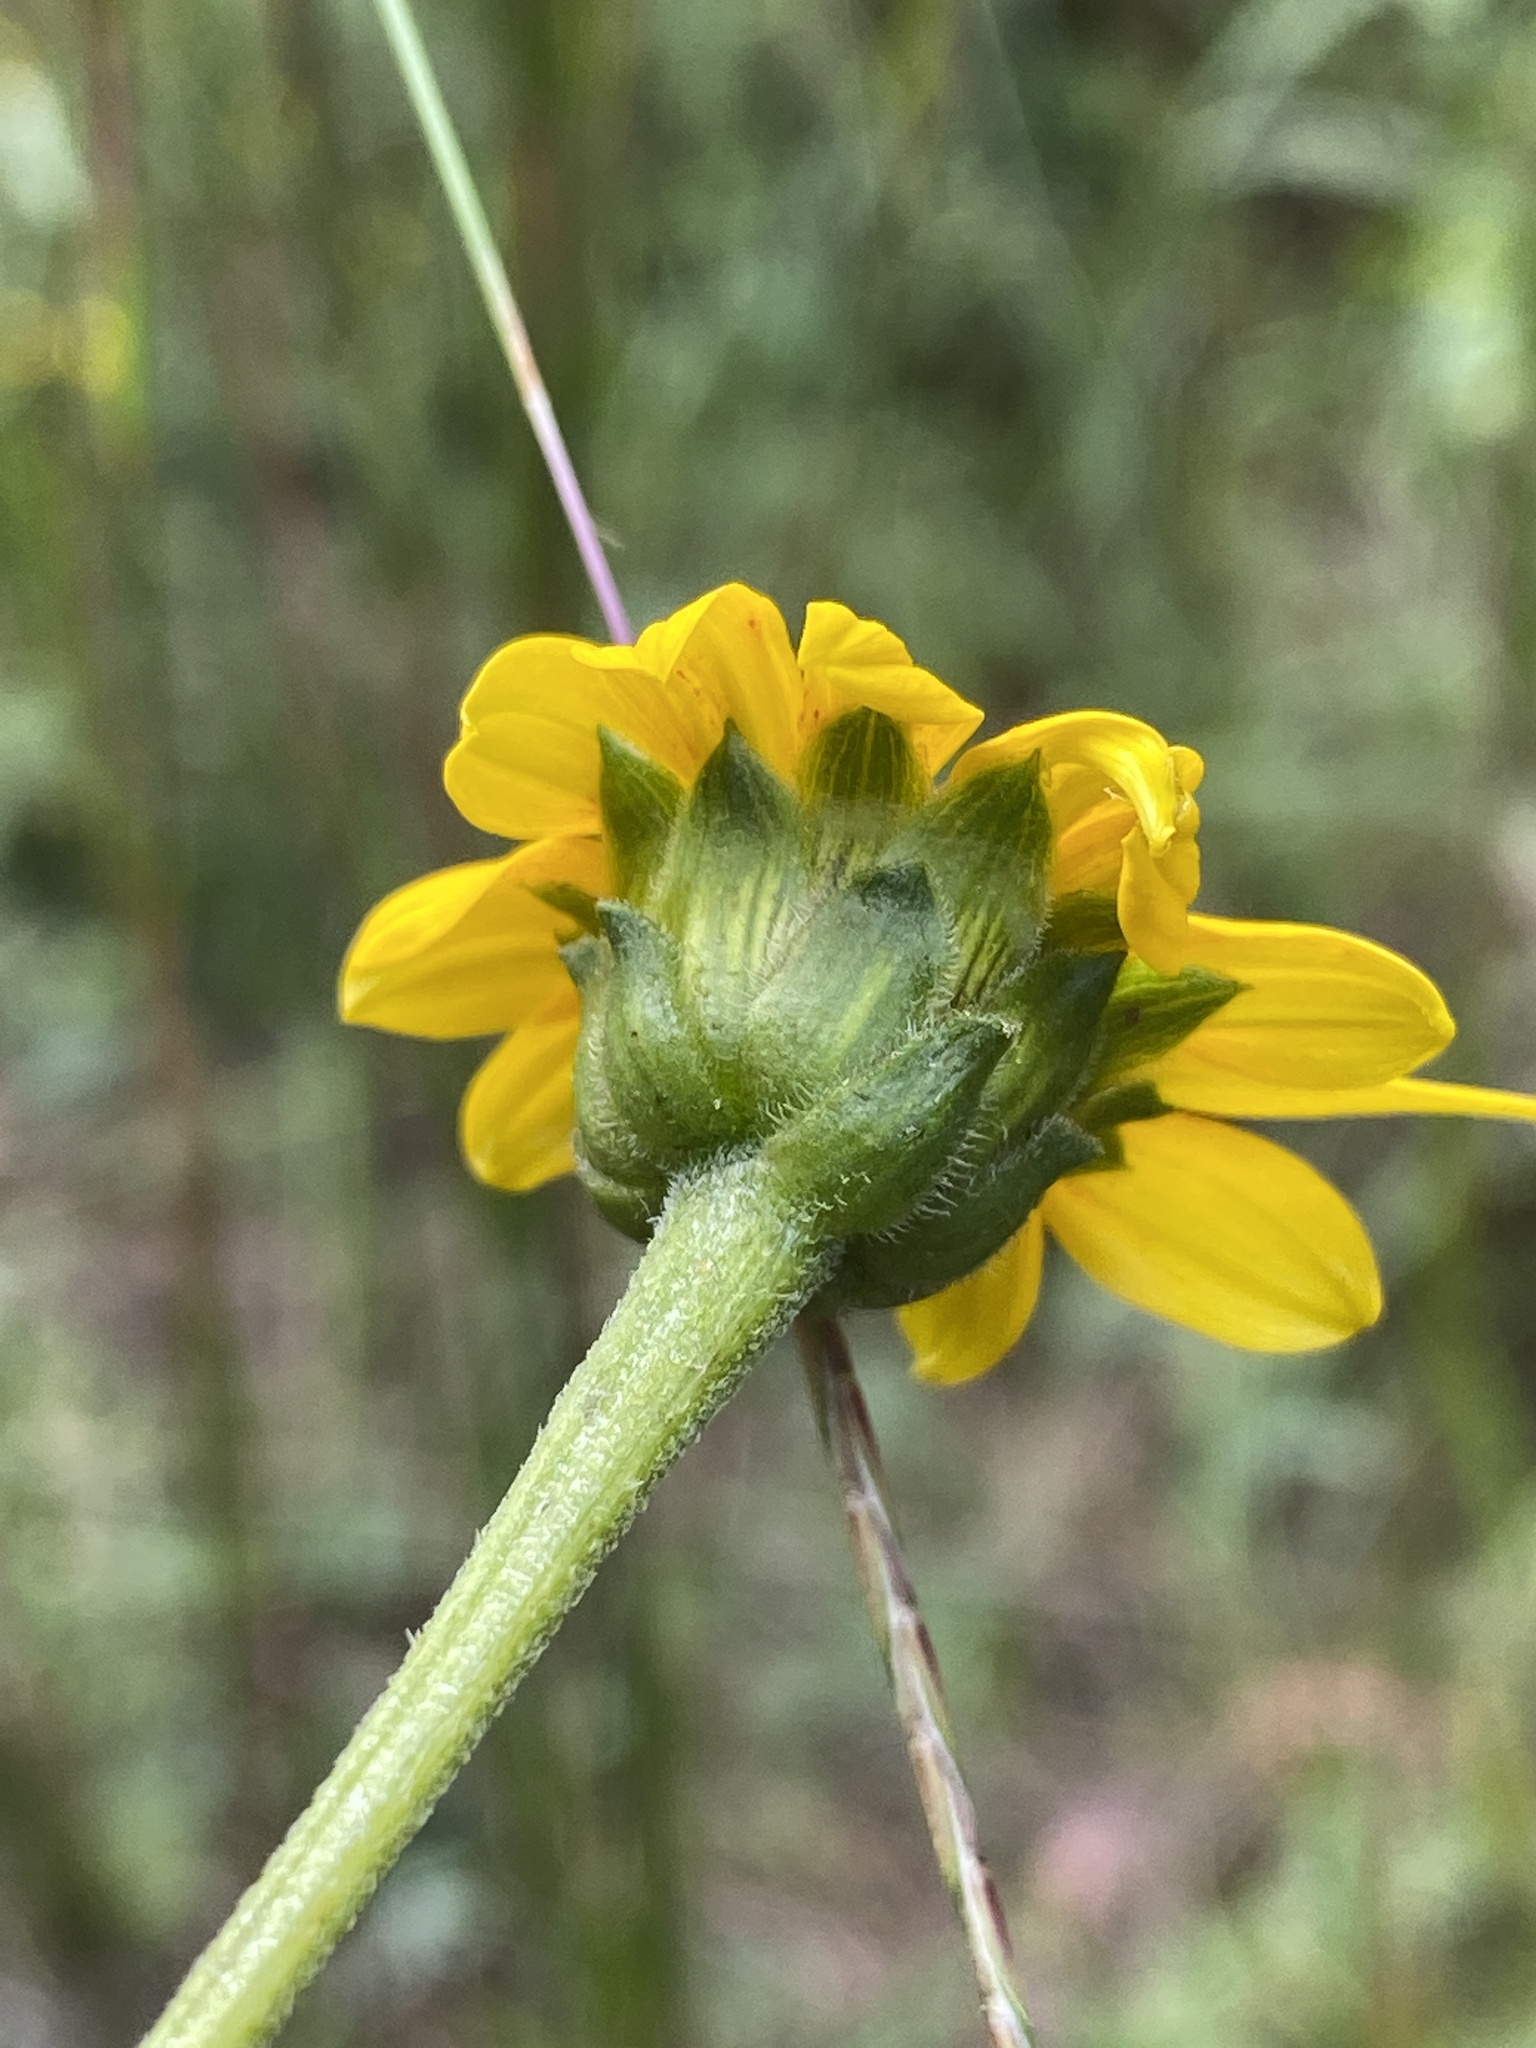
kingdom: Plantae
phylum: Tracheophyta
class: Magnoliopsida
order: Asterales
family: Asteraceae
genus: Helianthus
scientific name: Helianthus atrorubens
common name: Dark-eyed sunflower
